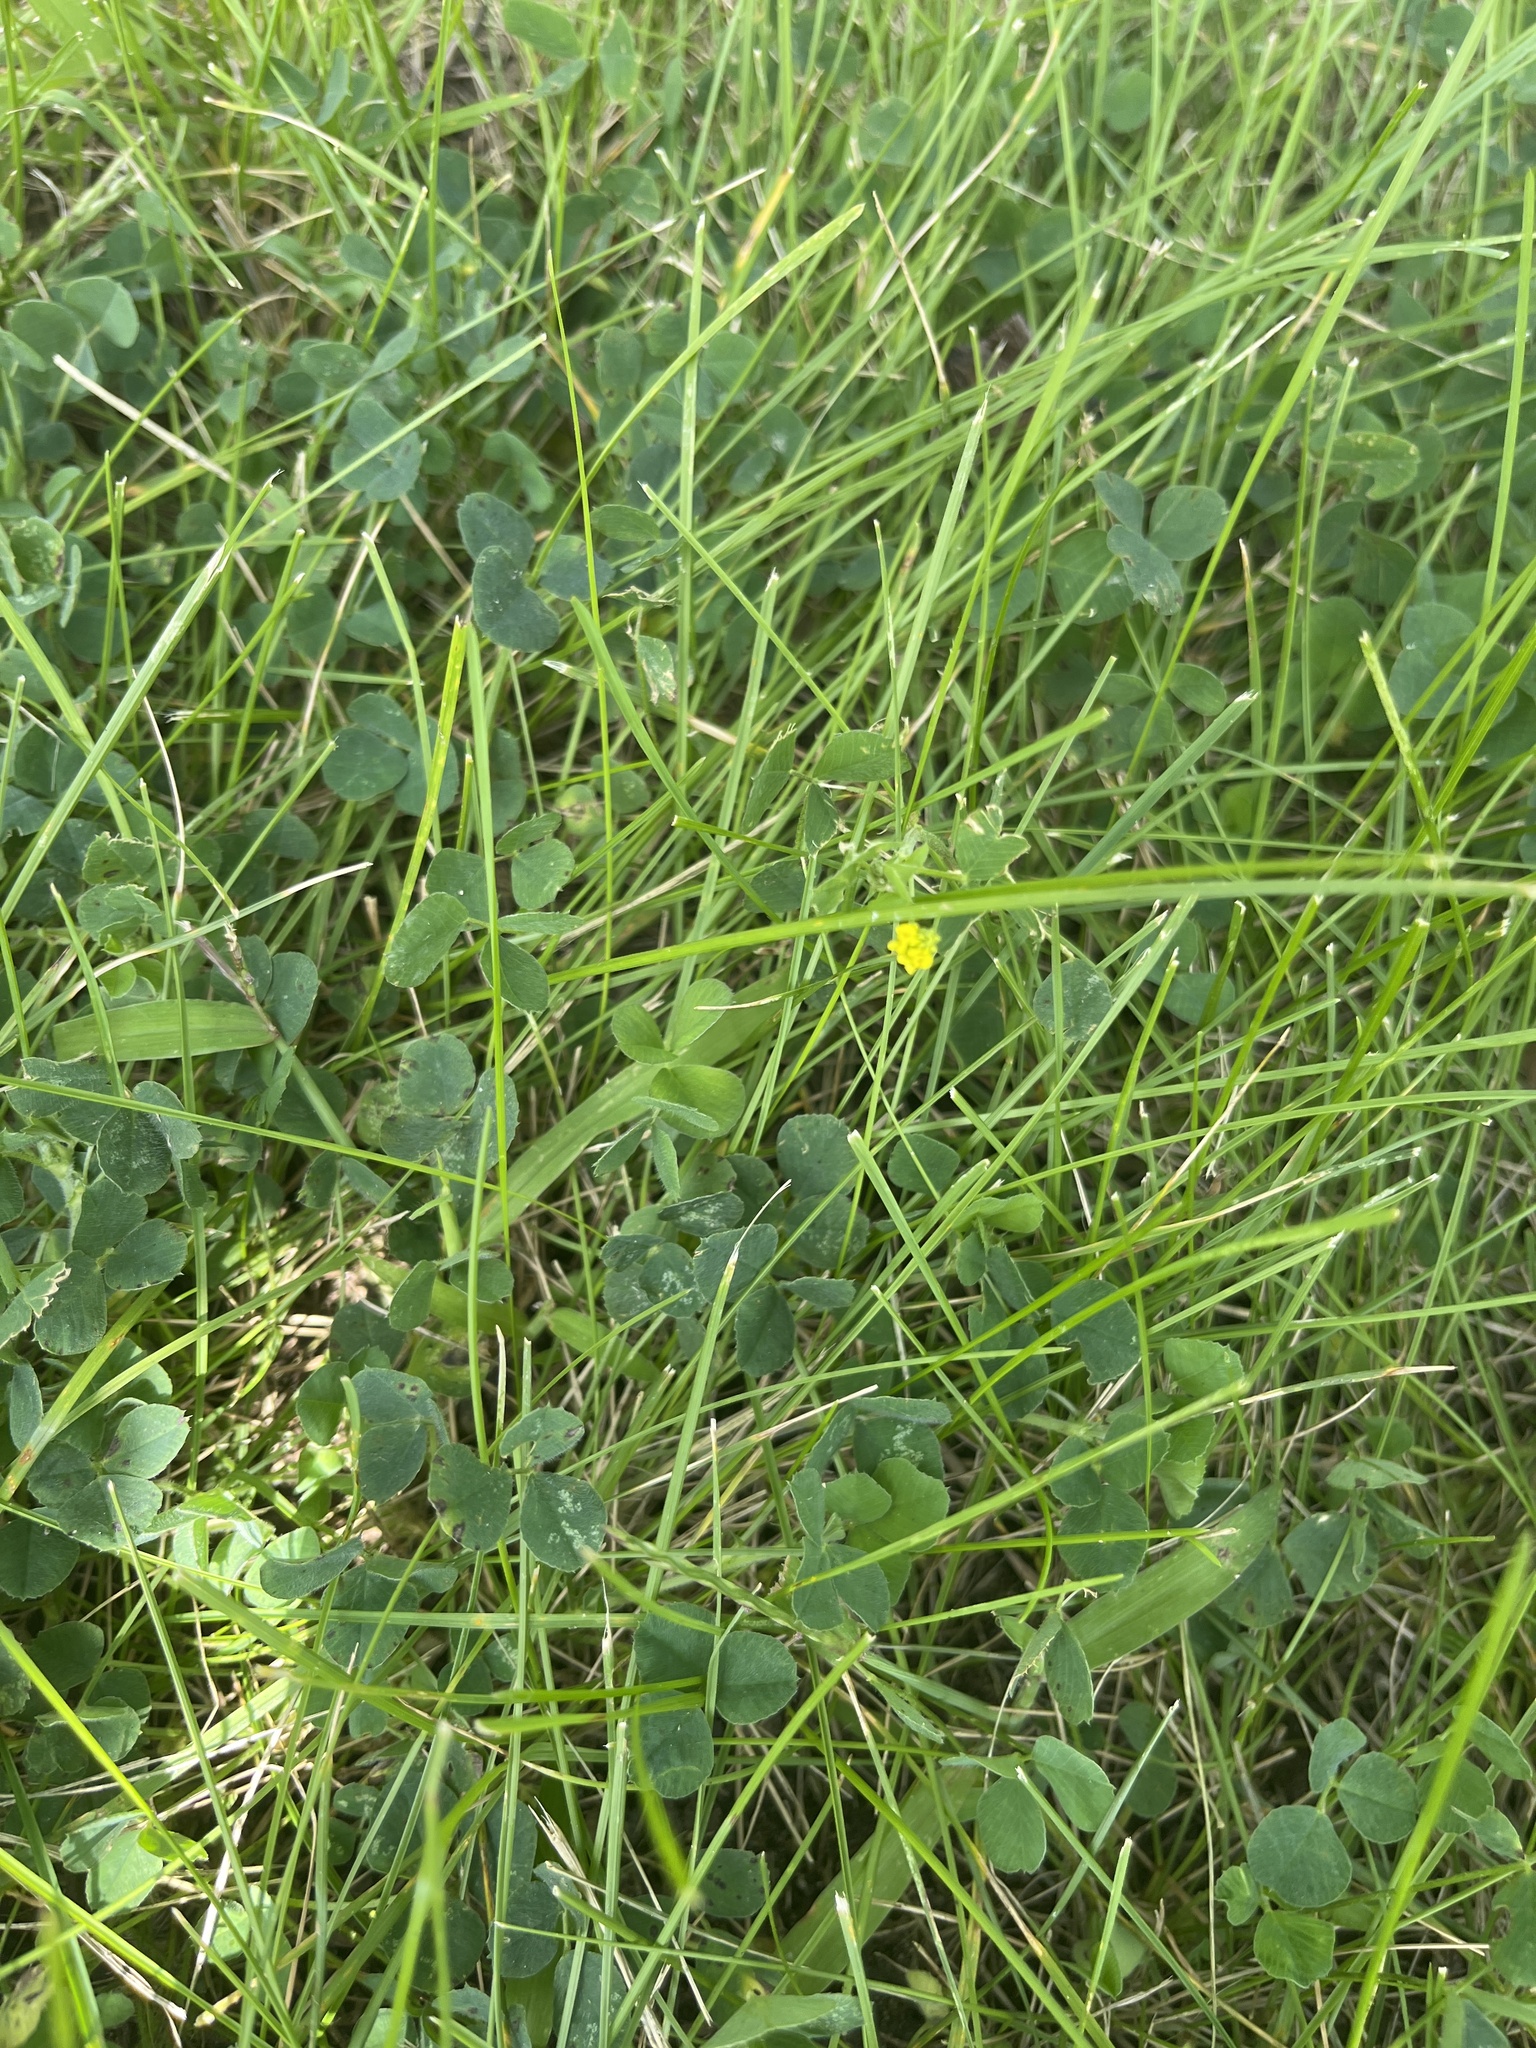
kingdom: Plantae
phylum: Tracheophyta
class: Magnoliopsida
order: Fabales
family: Fabaceae
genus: Medicago
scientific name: Medicago lupulina
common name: Black medick
